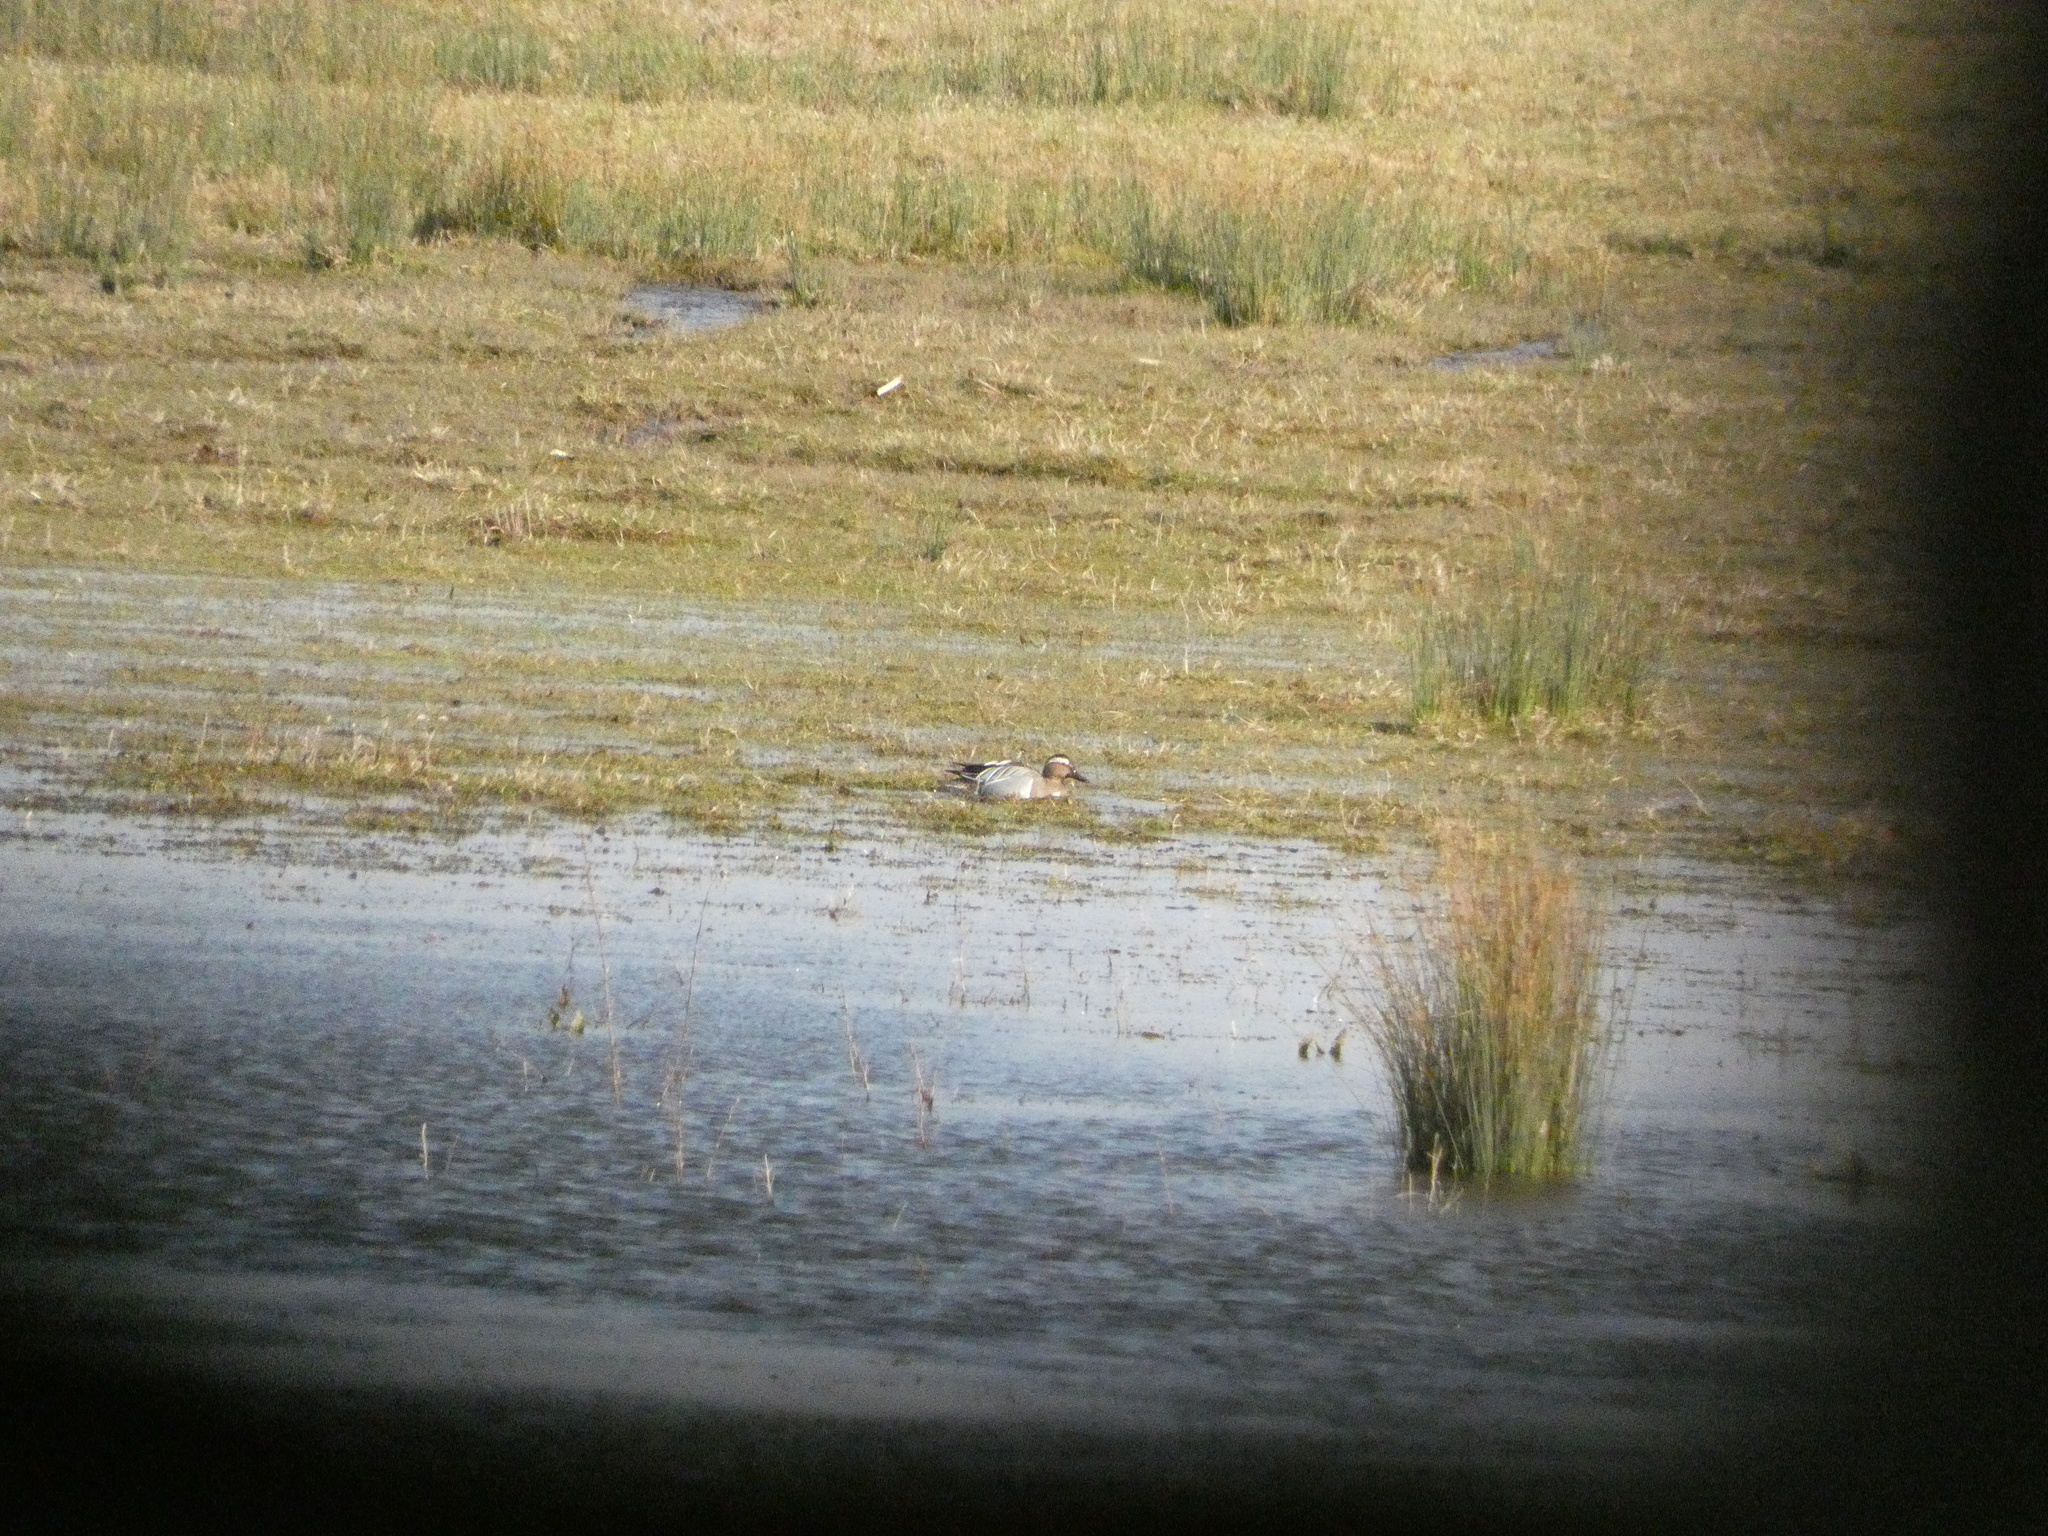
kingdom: Animalia
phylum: Chordata
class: Aves
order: Anseriformes
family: Anatidae
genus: Spatula
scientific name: Spatula querquedula
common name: Garganey
